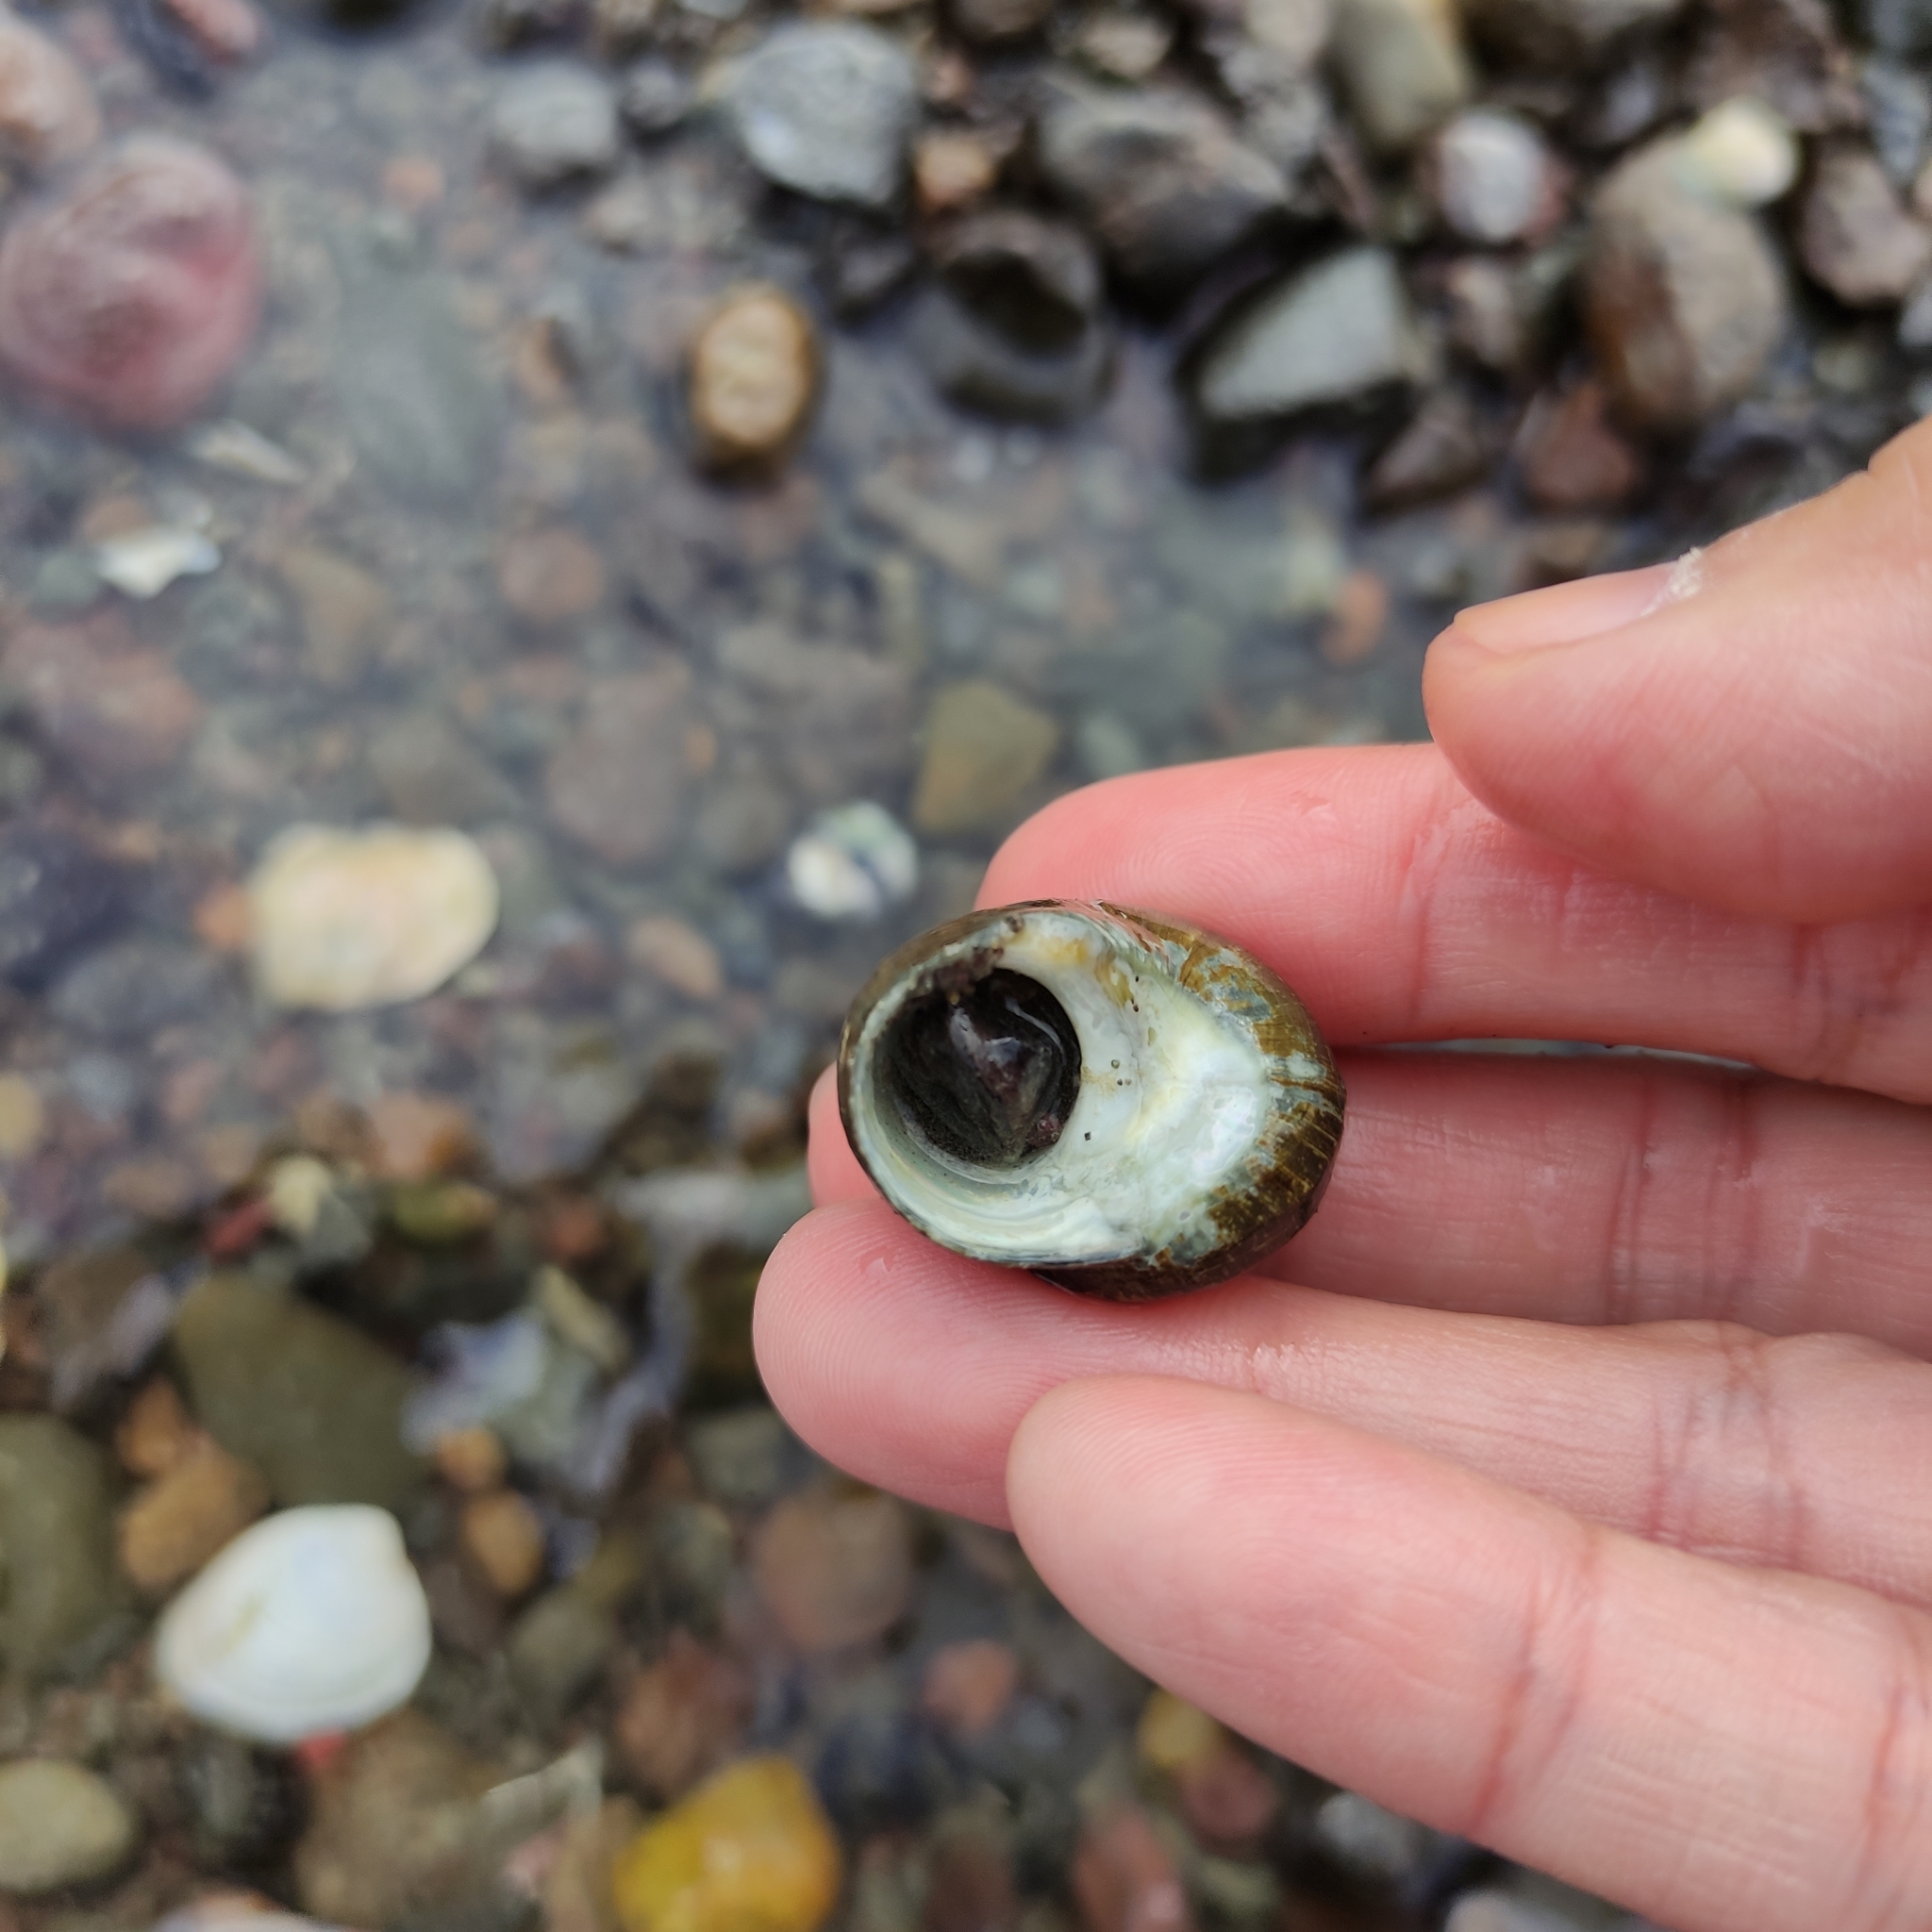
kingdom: Animalia
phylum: Mollusca
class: Gastropoda
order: Trochida
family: Turbinidae
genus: Lunella
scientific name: Lunella smaragda
